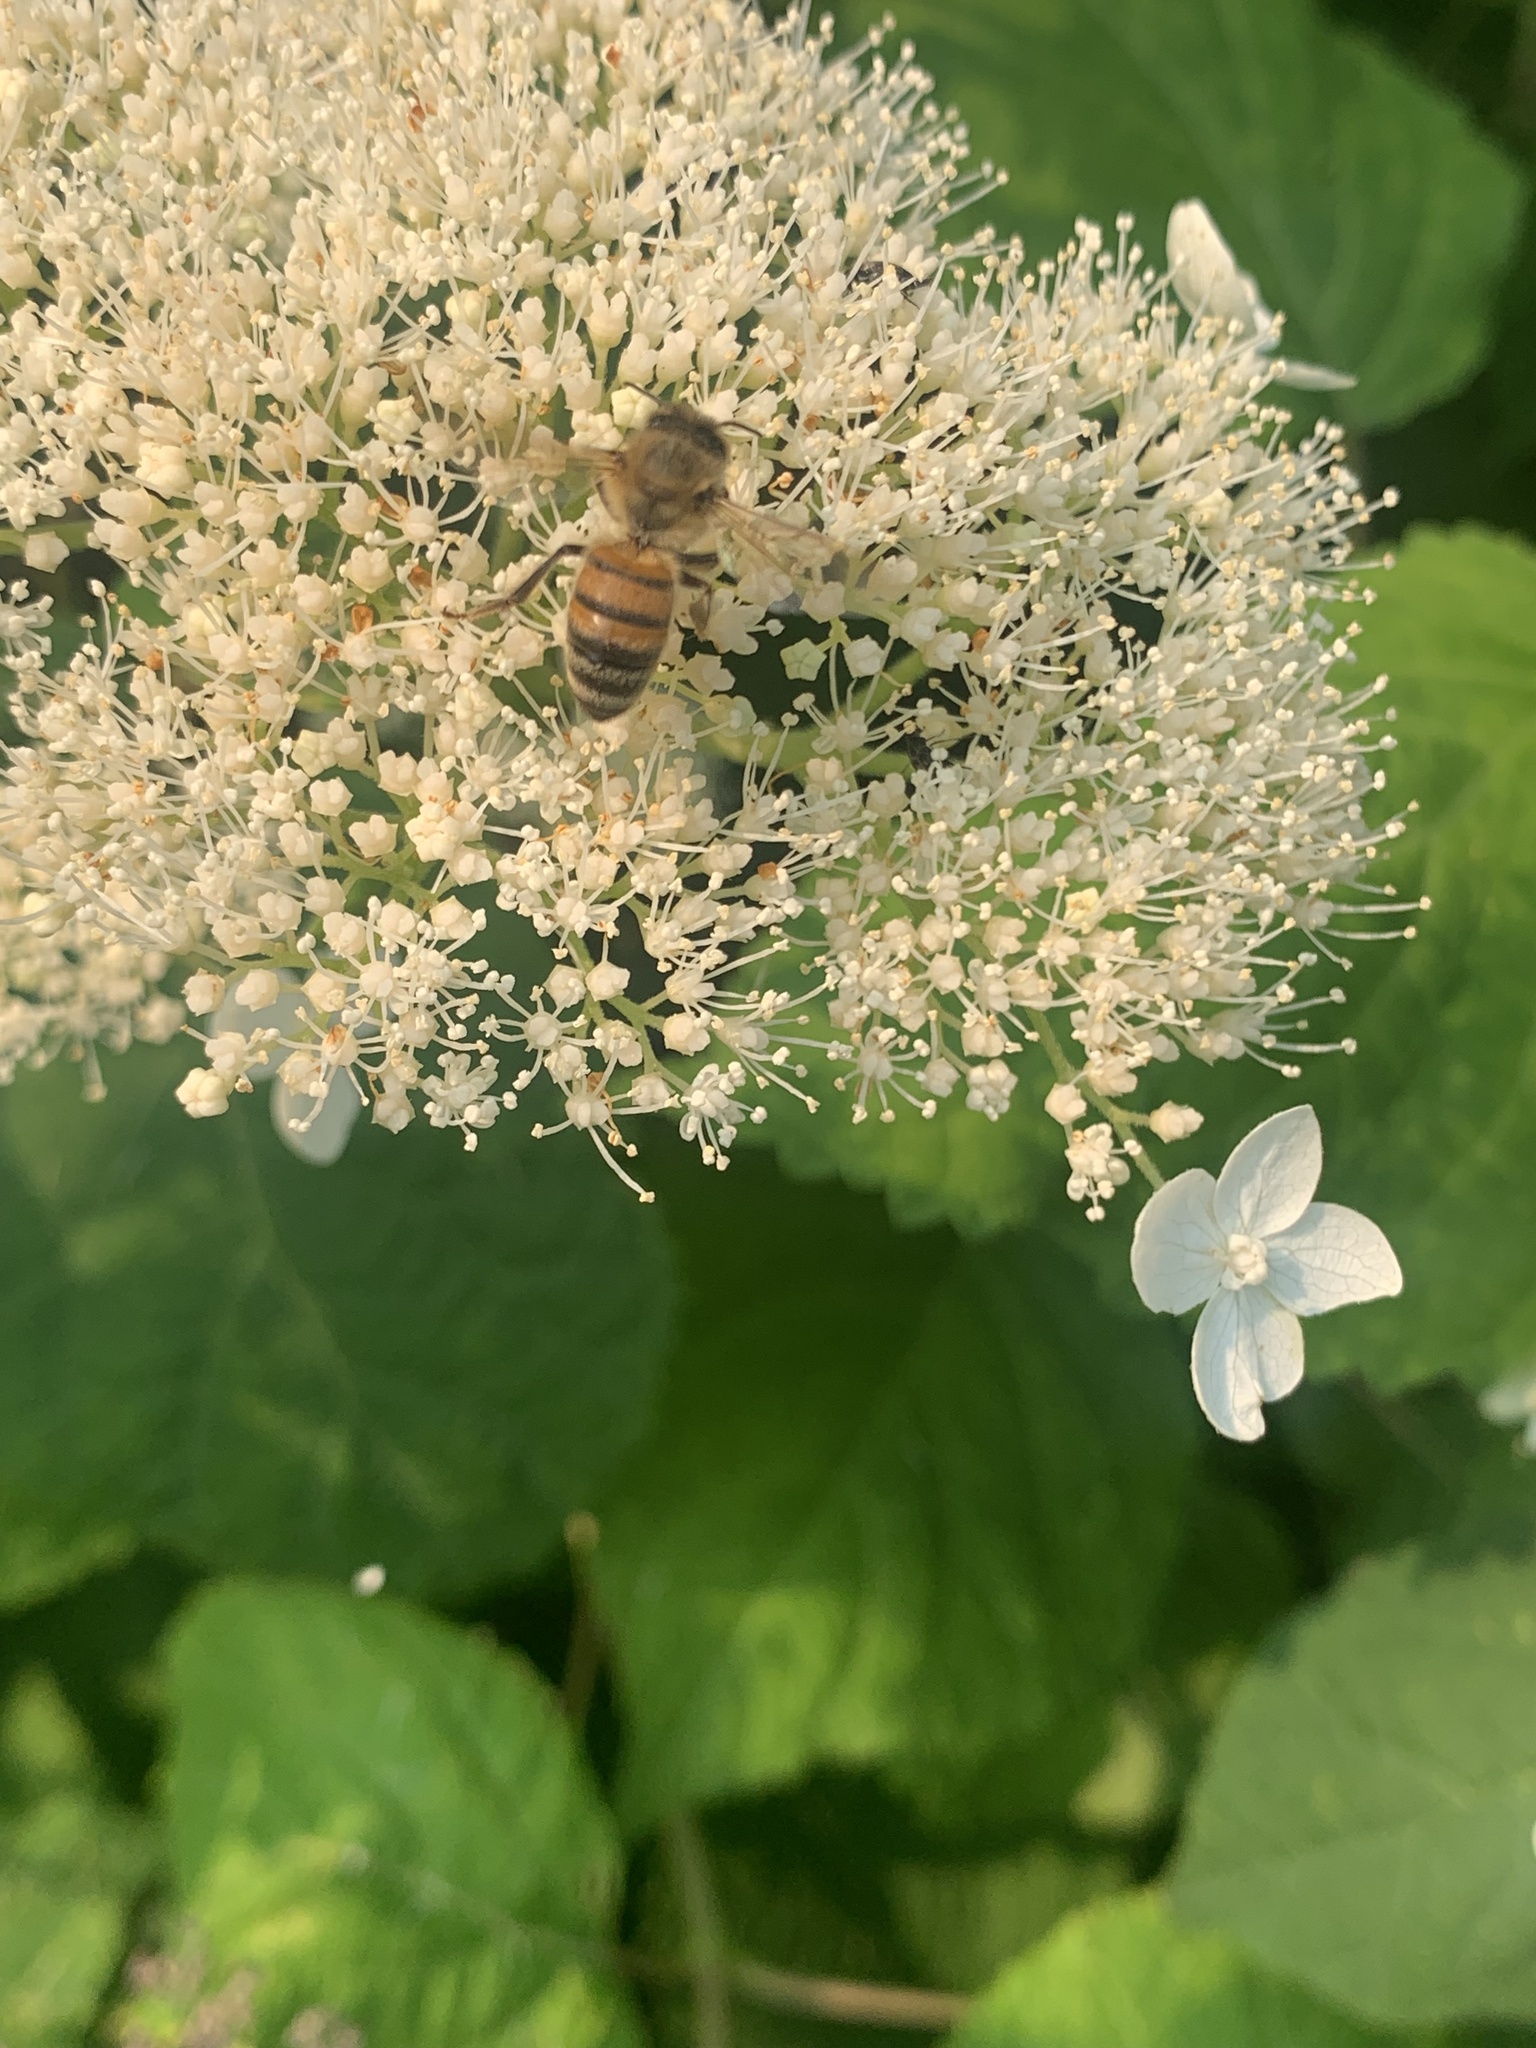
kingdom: Animalia
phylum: Arthropoda
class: Insecta
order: Hymenoptera
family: Apidae
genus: Apis
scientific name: Apis mellifera
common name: Honey bee
